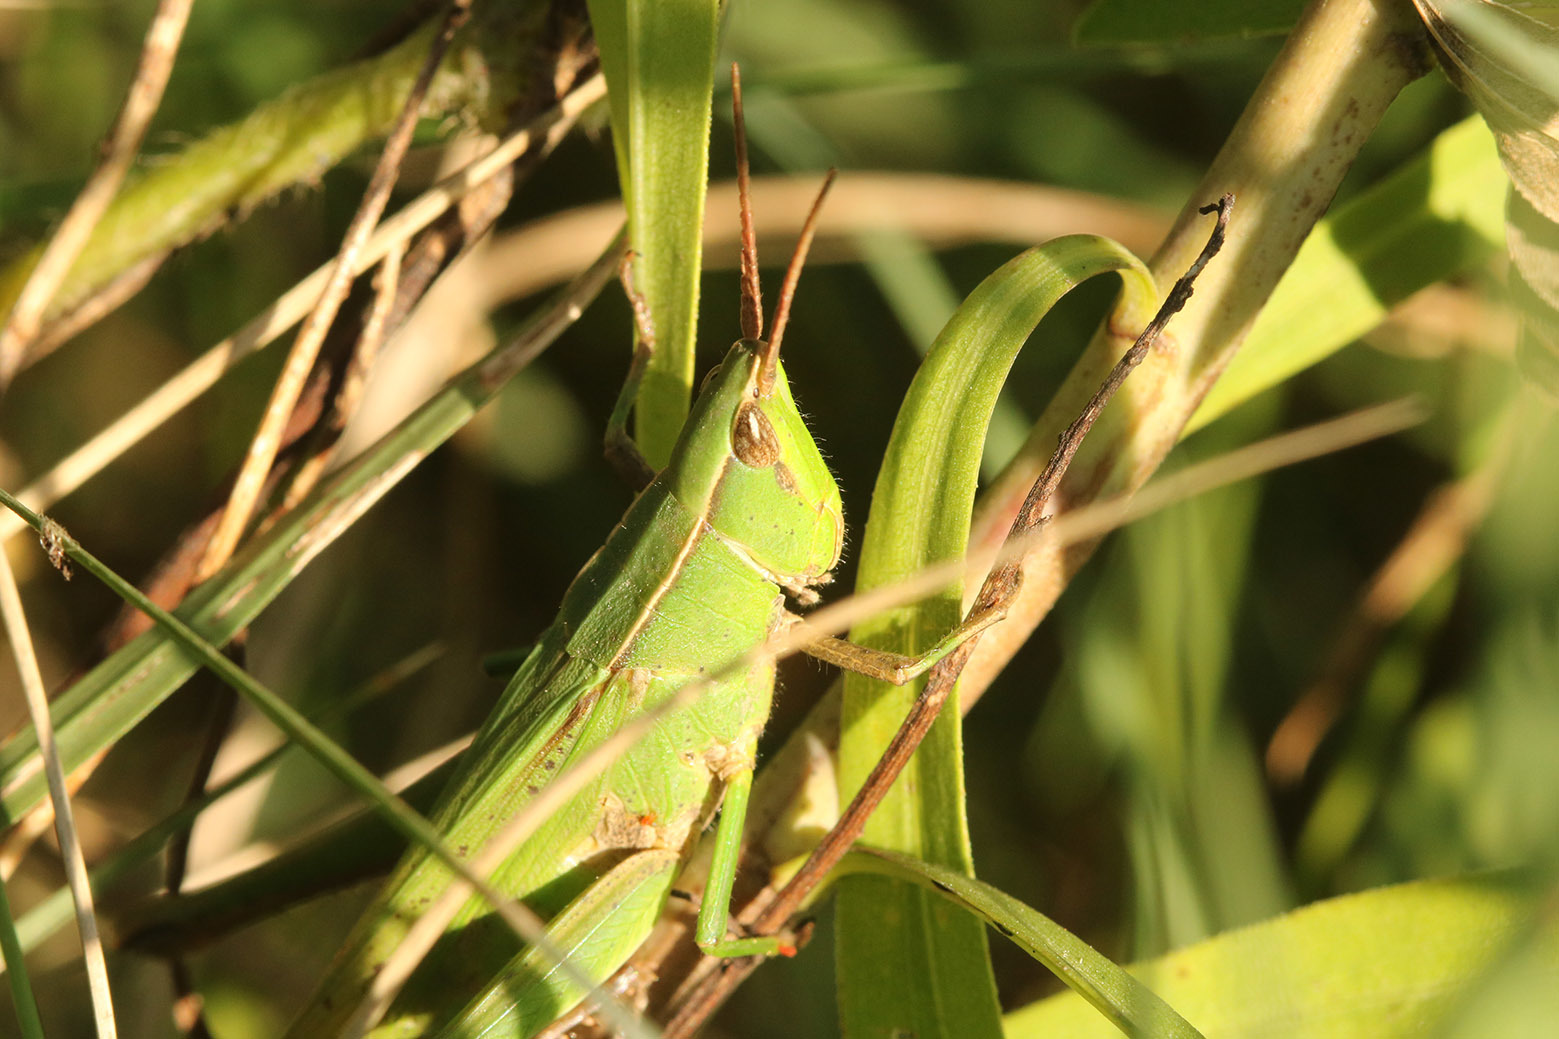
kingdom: Animalia
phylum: Arthropoda
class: Insecta
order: Orthoptera
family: Acrididae
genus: Metaleptea
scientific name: Metaleptea adspersa
